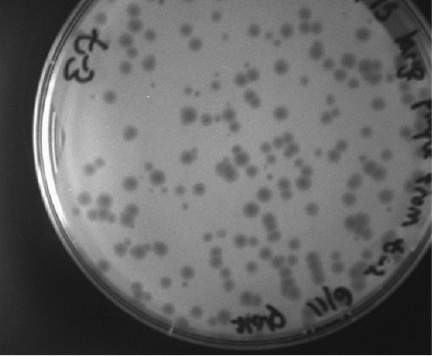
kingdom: Viruses
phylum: Uroviricota
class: Caudoviricetes
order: Caudovirales
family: Siphoviridae
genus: Decurrovirus
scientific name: Decurrovirus decurro
